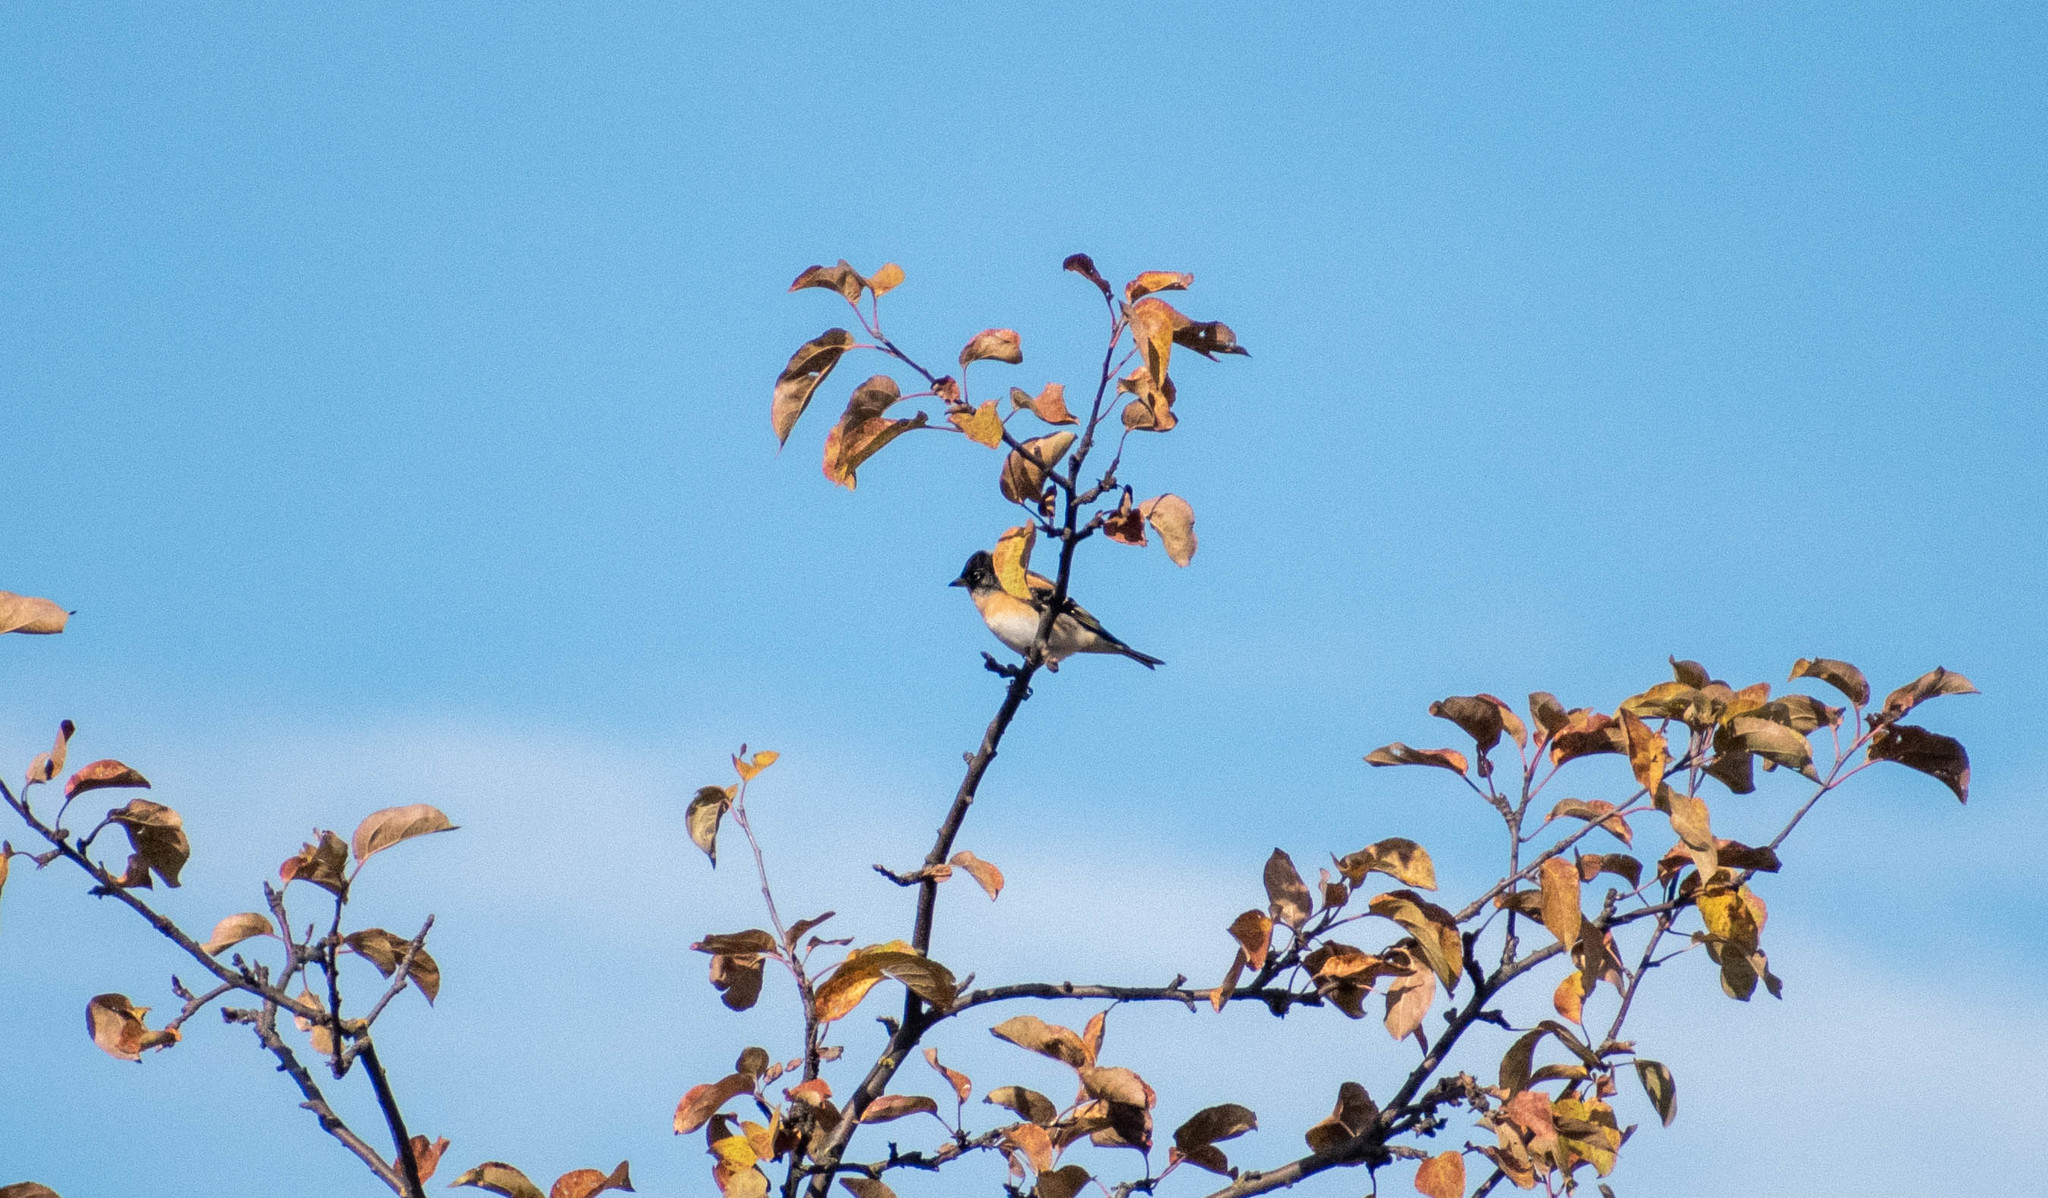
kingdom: Animalia
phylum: Chordata
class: Aves
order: Passeriformes
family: Fringillidae
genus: Fringilla
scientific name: Fringilla montifringilla
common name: Brambling
